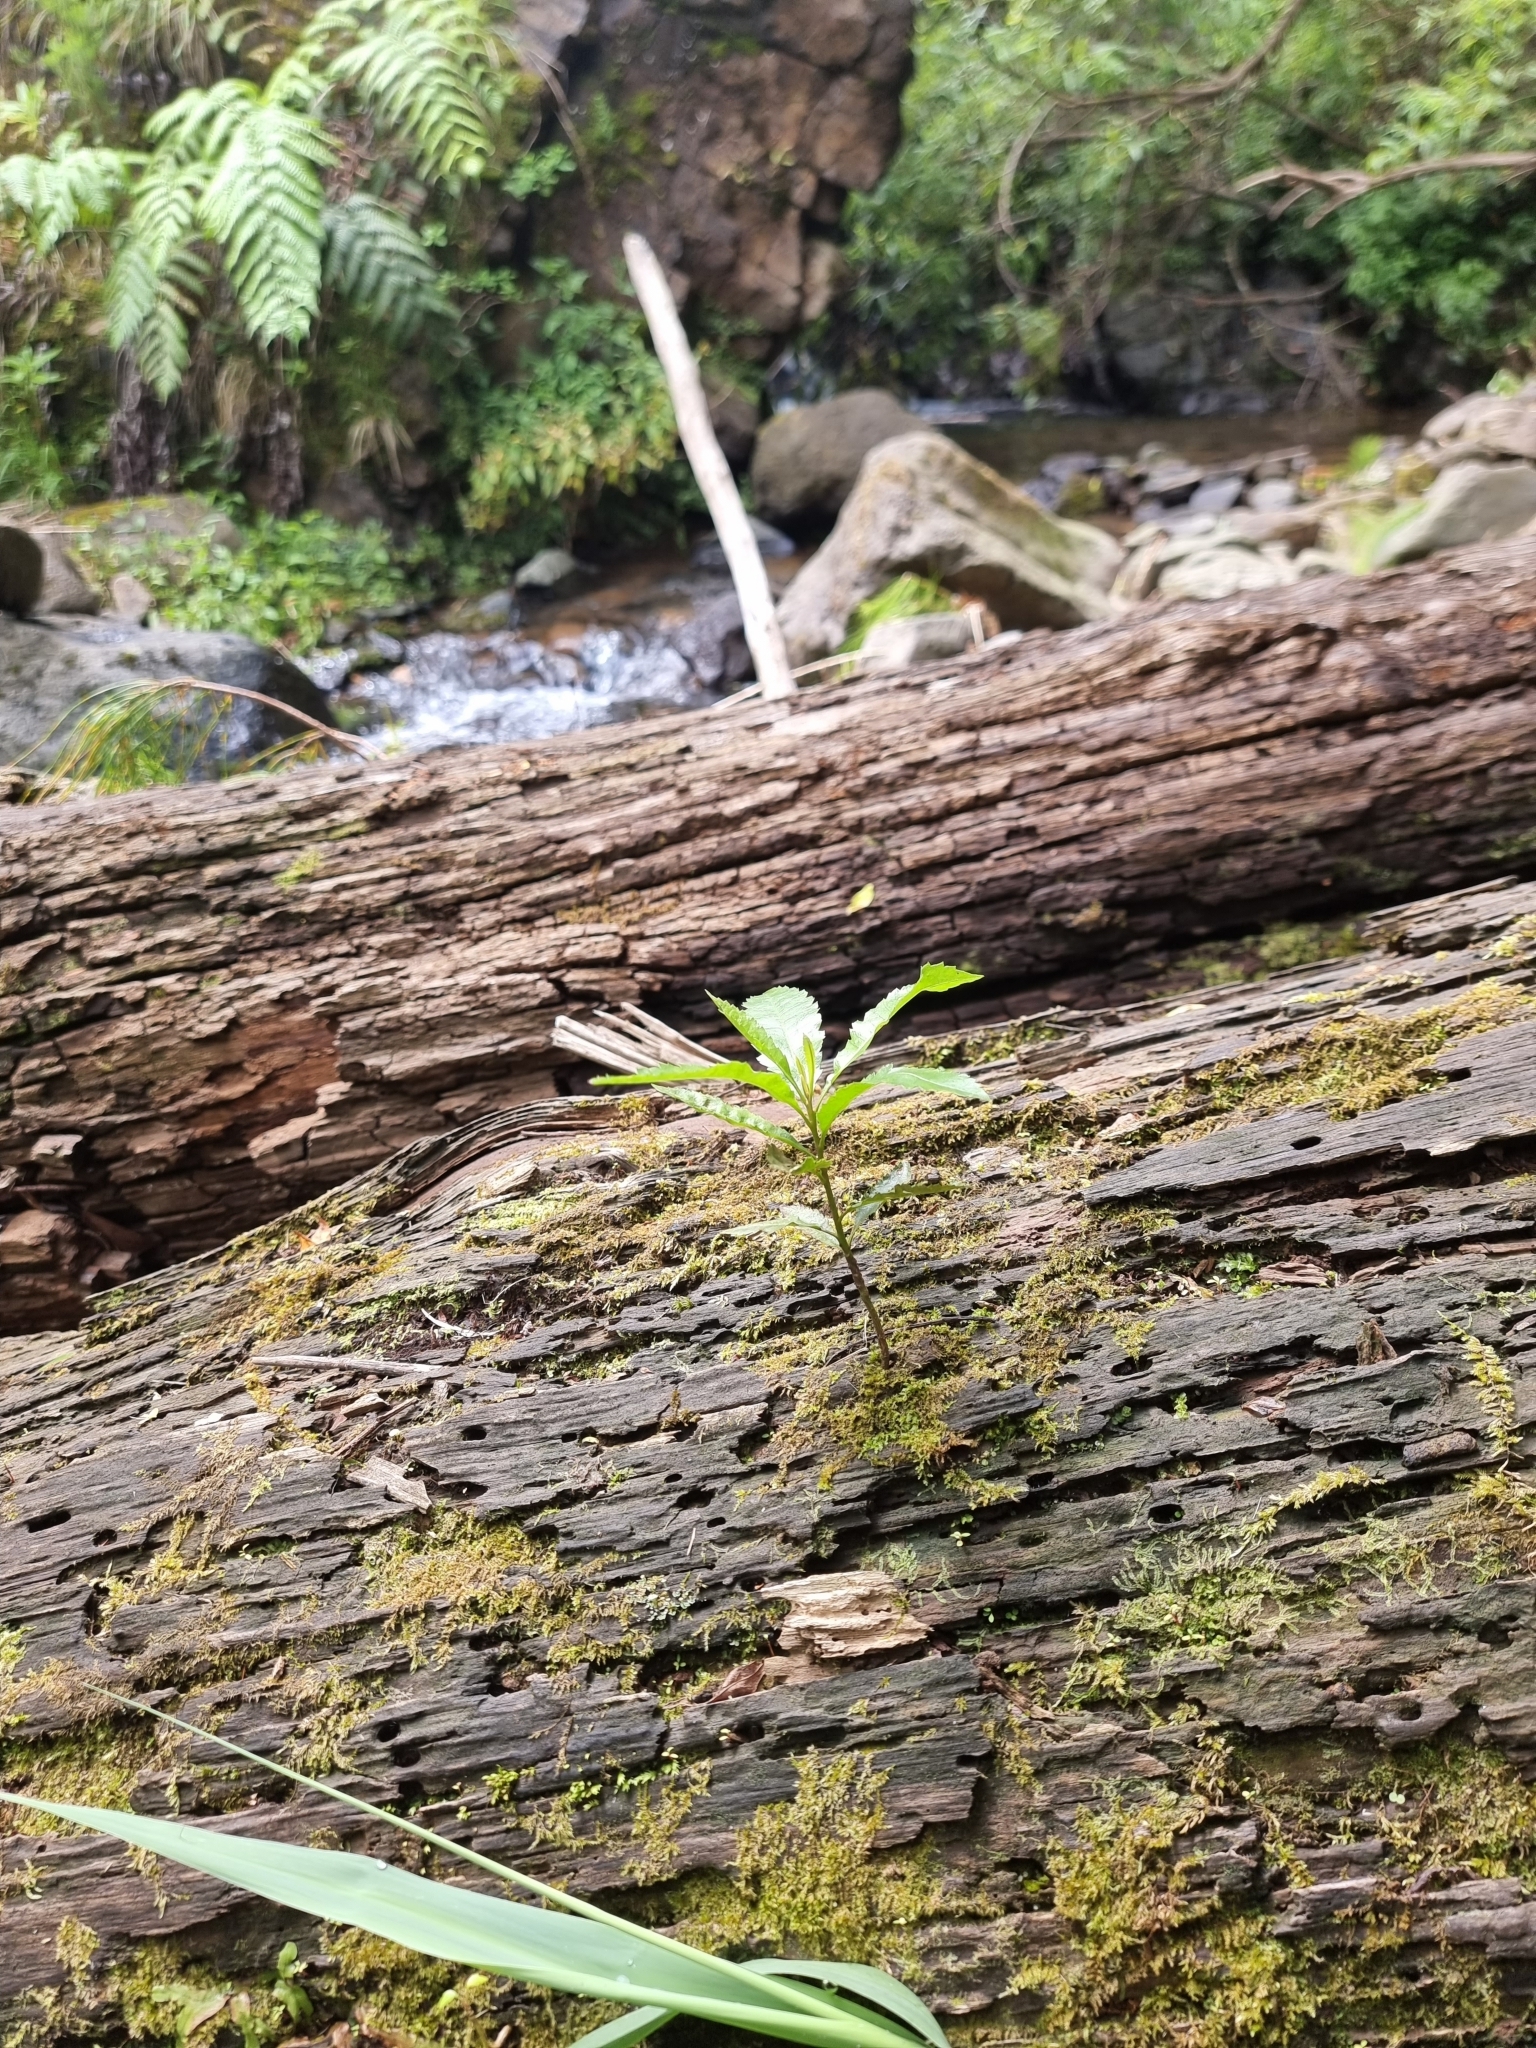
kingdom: Plantae
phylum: Tracheophyta
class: Magnoliopsida
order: Fagales
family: Myricaceae
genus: Morella
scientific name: Morella faya
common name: Firetree
